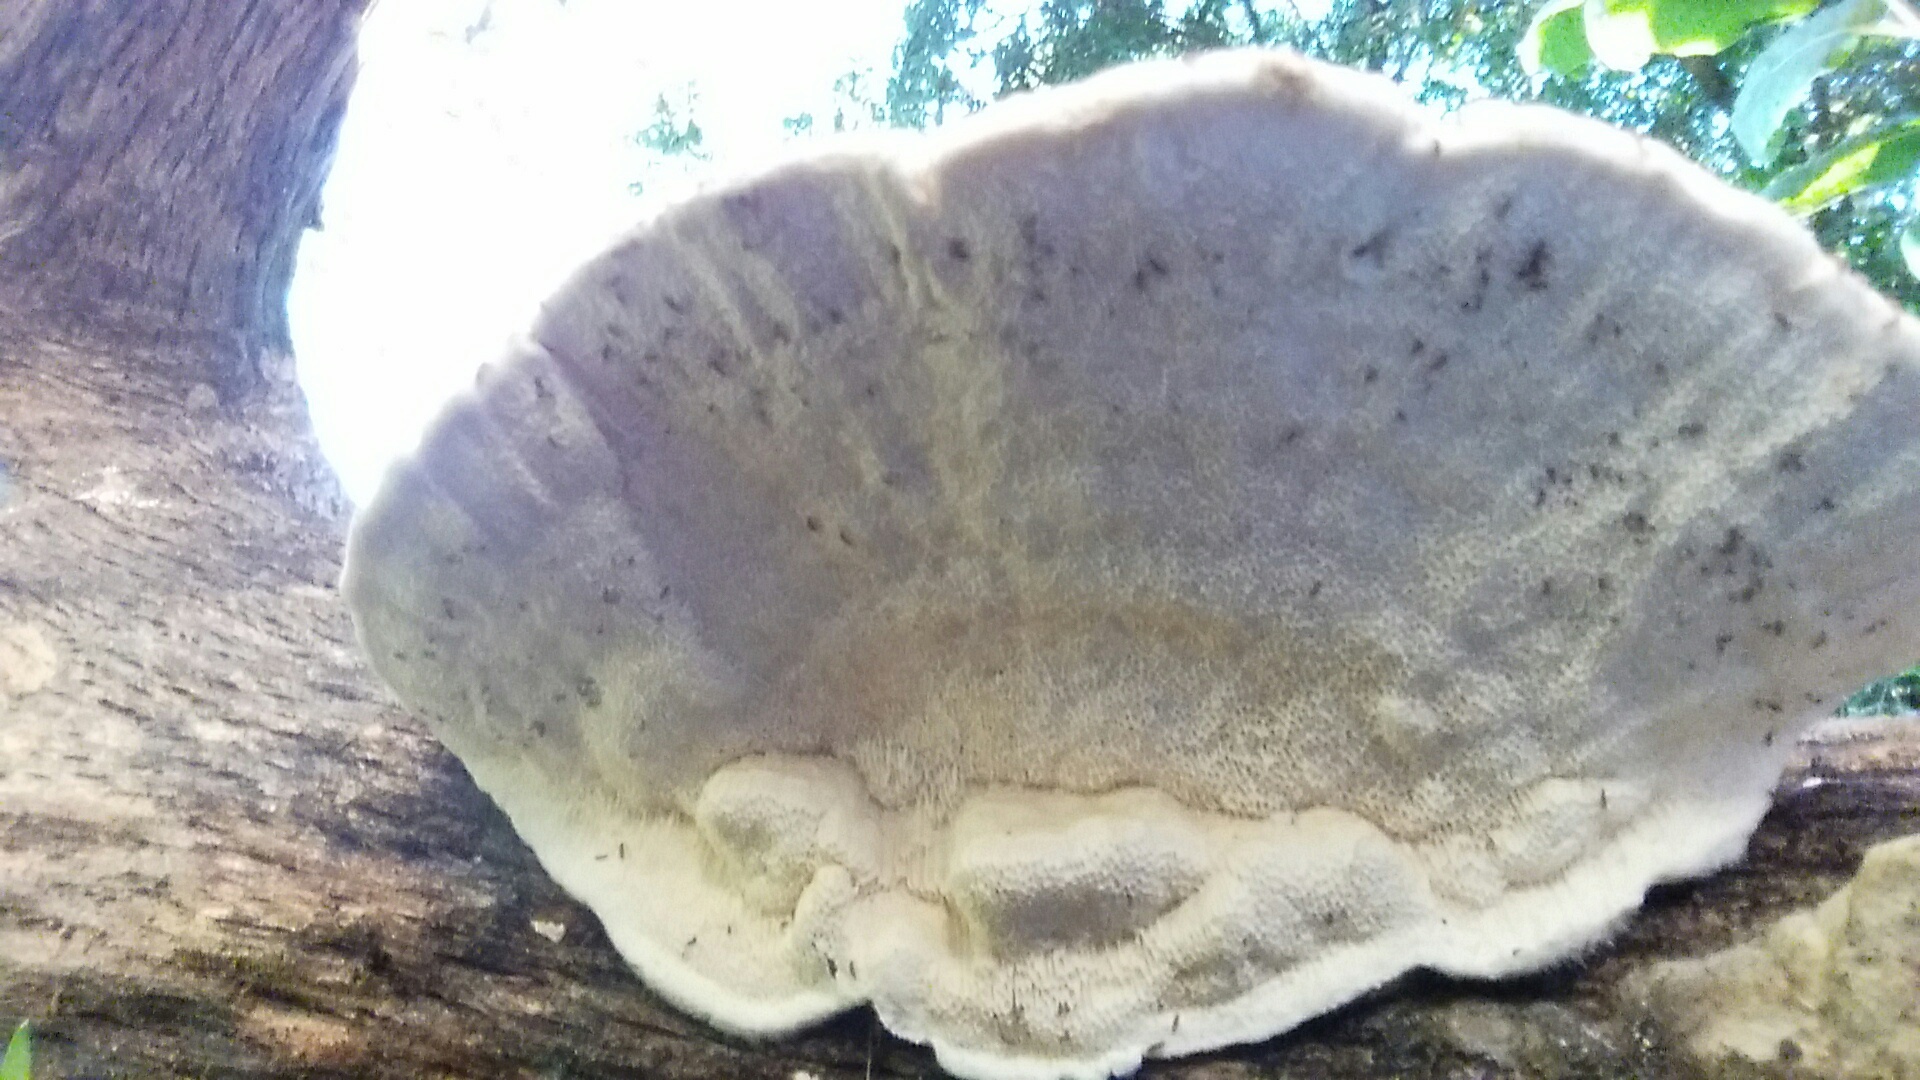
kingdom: Fungi
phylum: Basidiomycota
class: Agaricomycetes
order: Polyporales
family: Polyporaceae
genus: Trametes
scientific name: Trametes hirsuta
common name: Hairy bracket
